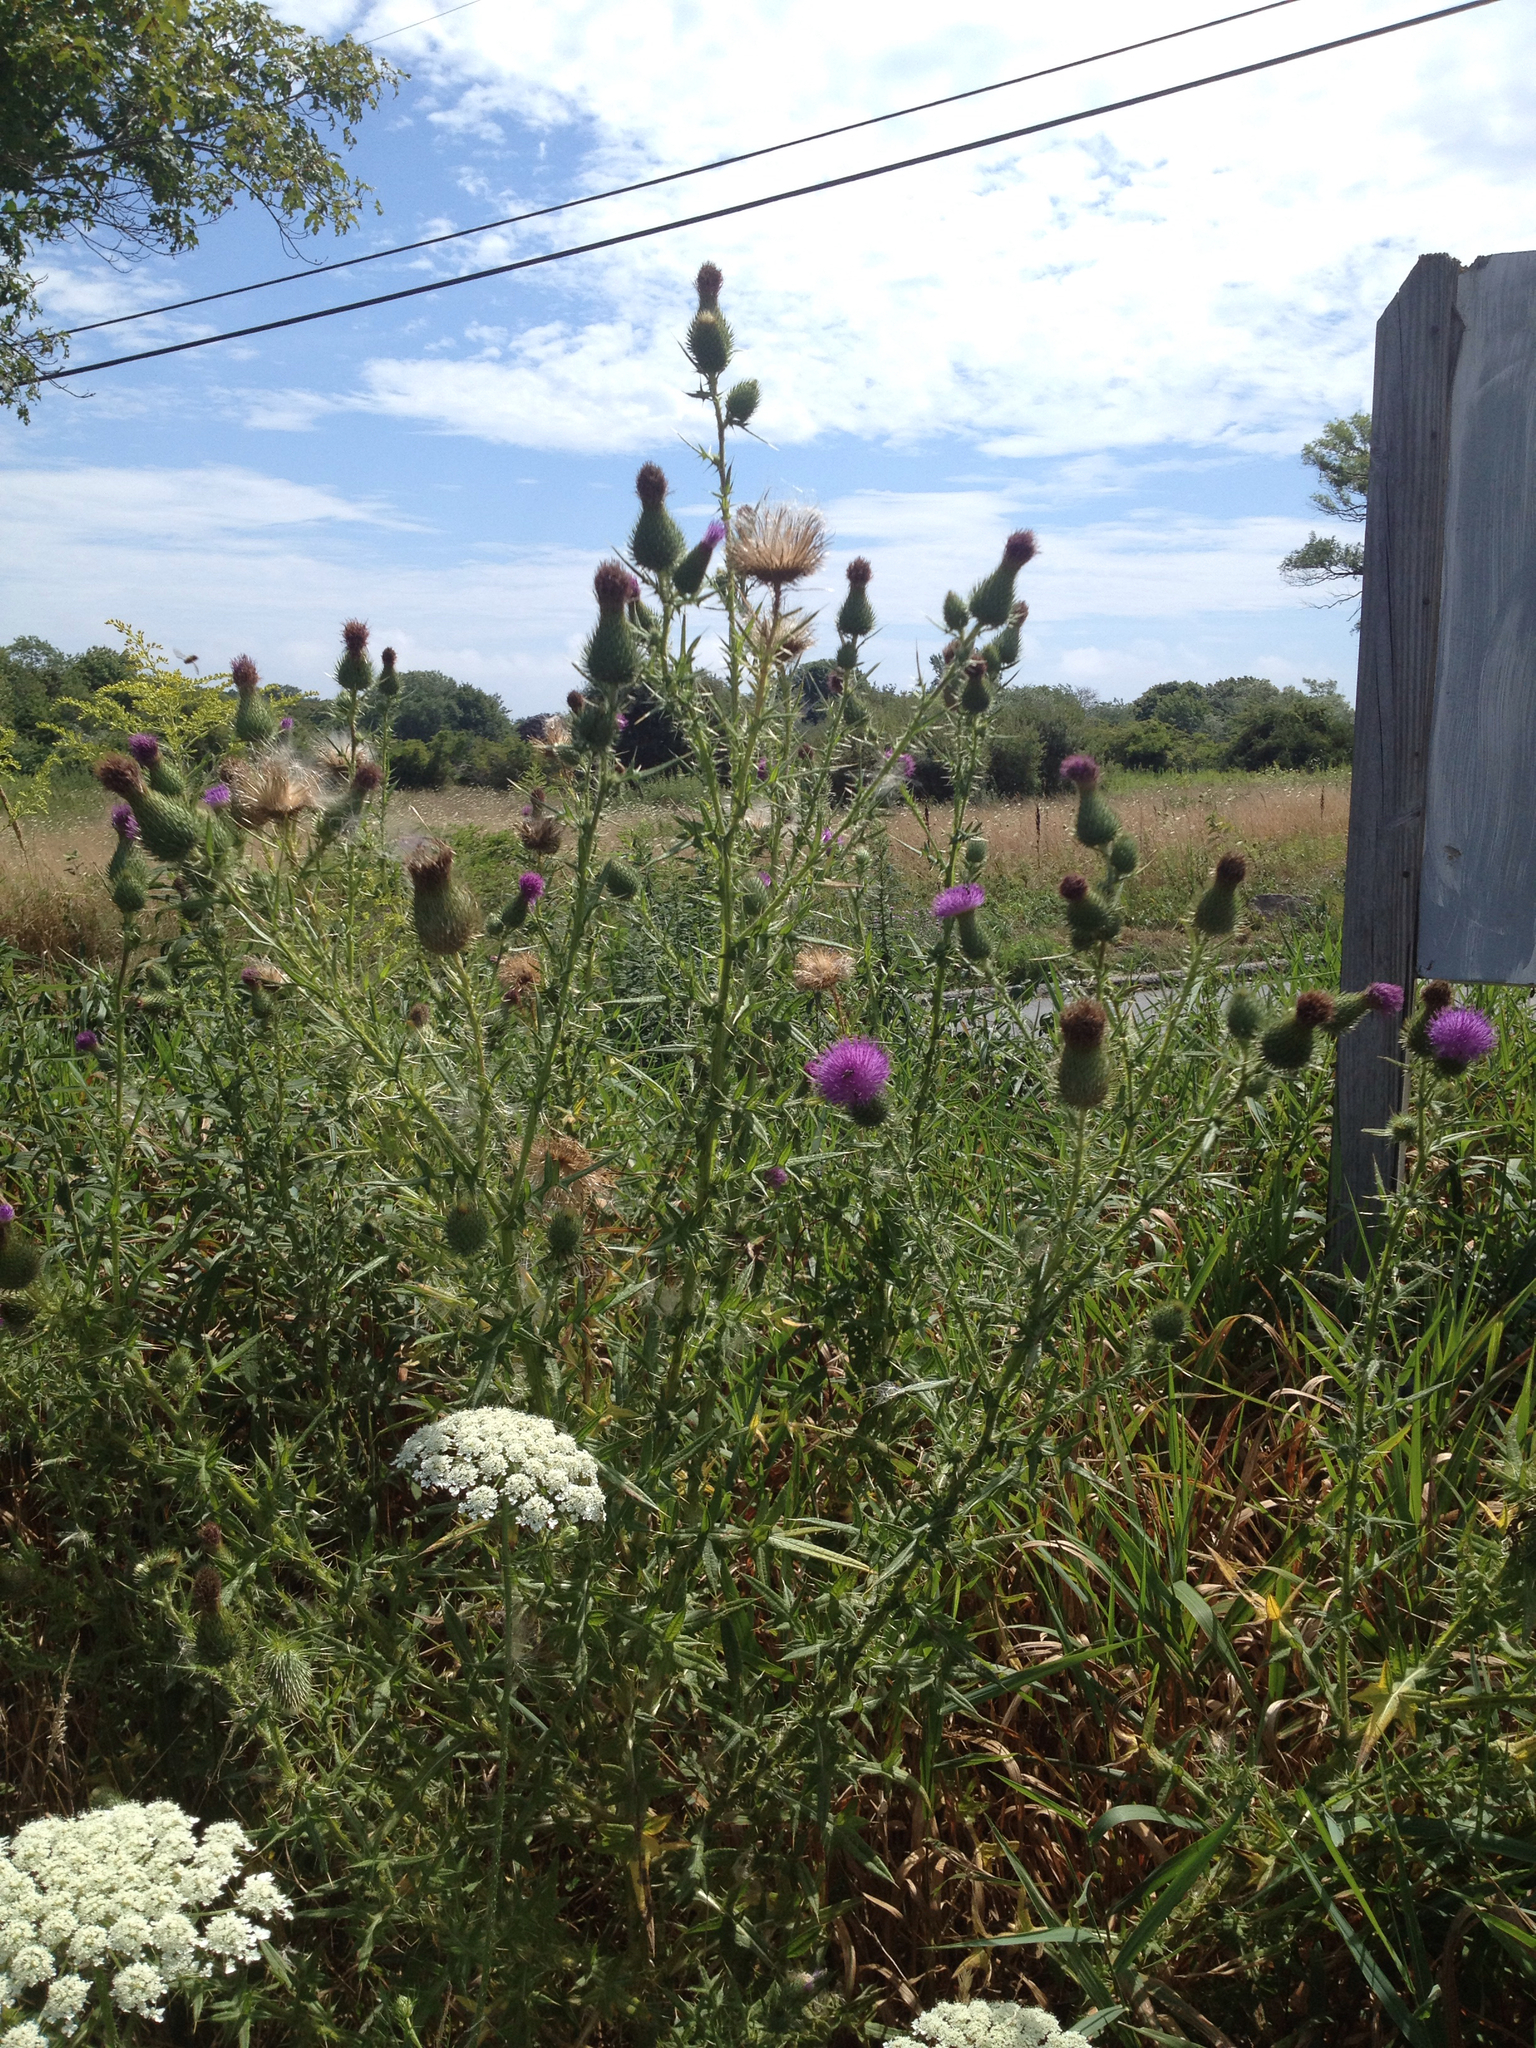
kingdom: Plantae
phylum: Tracheophyta
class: Magnoliopsida
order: Asterales
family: Asteraceae
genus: Cirsium
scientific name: Cirsium vulgare
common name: Bull thistle
